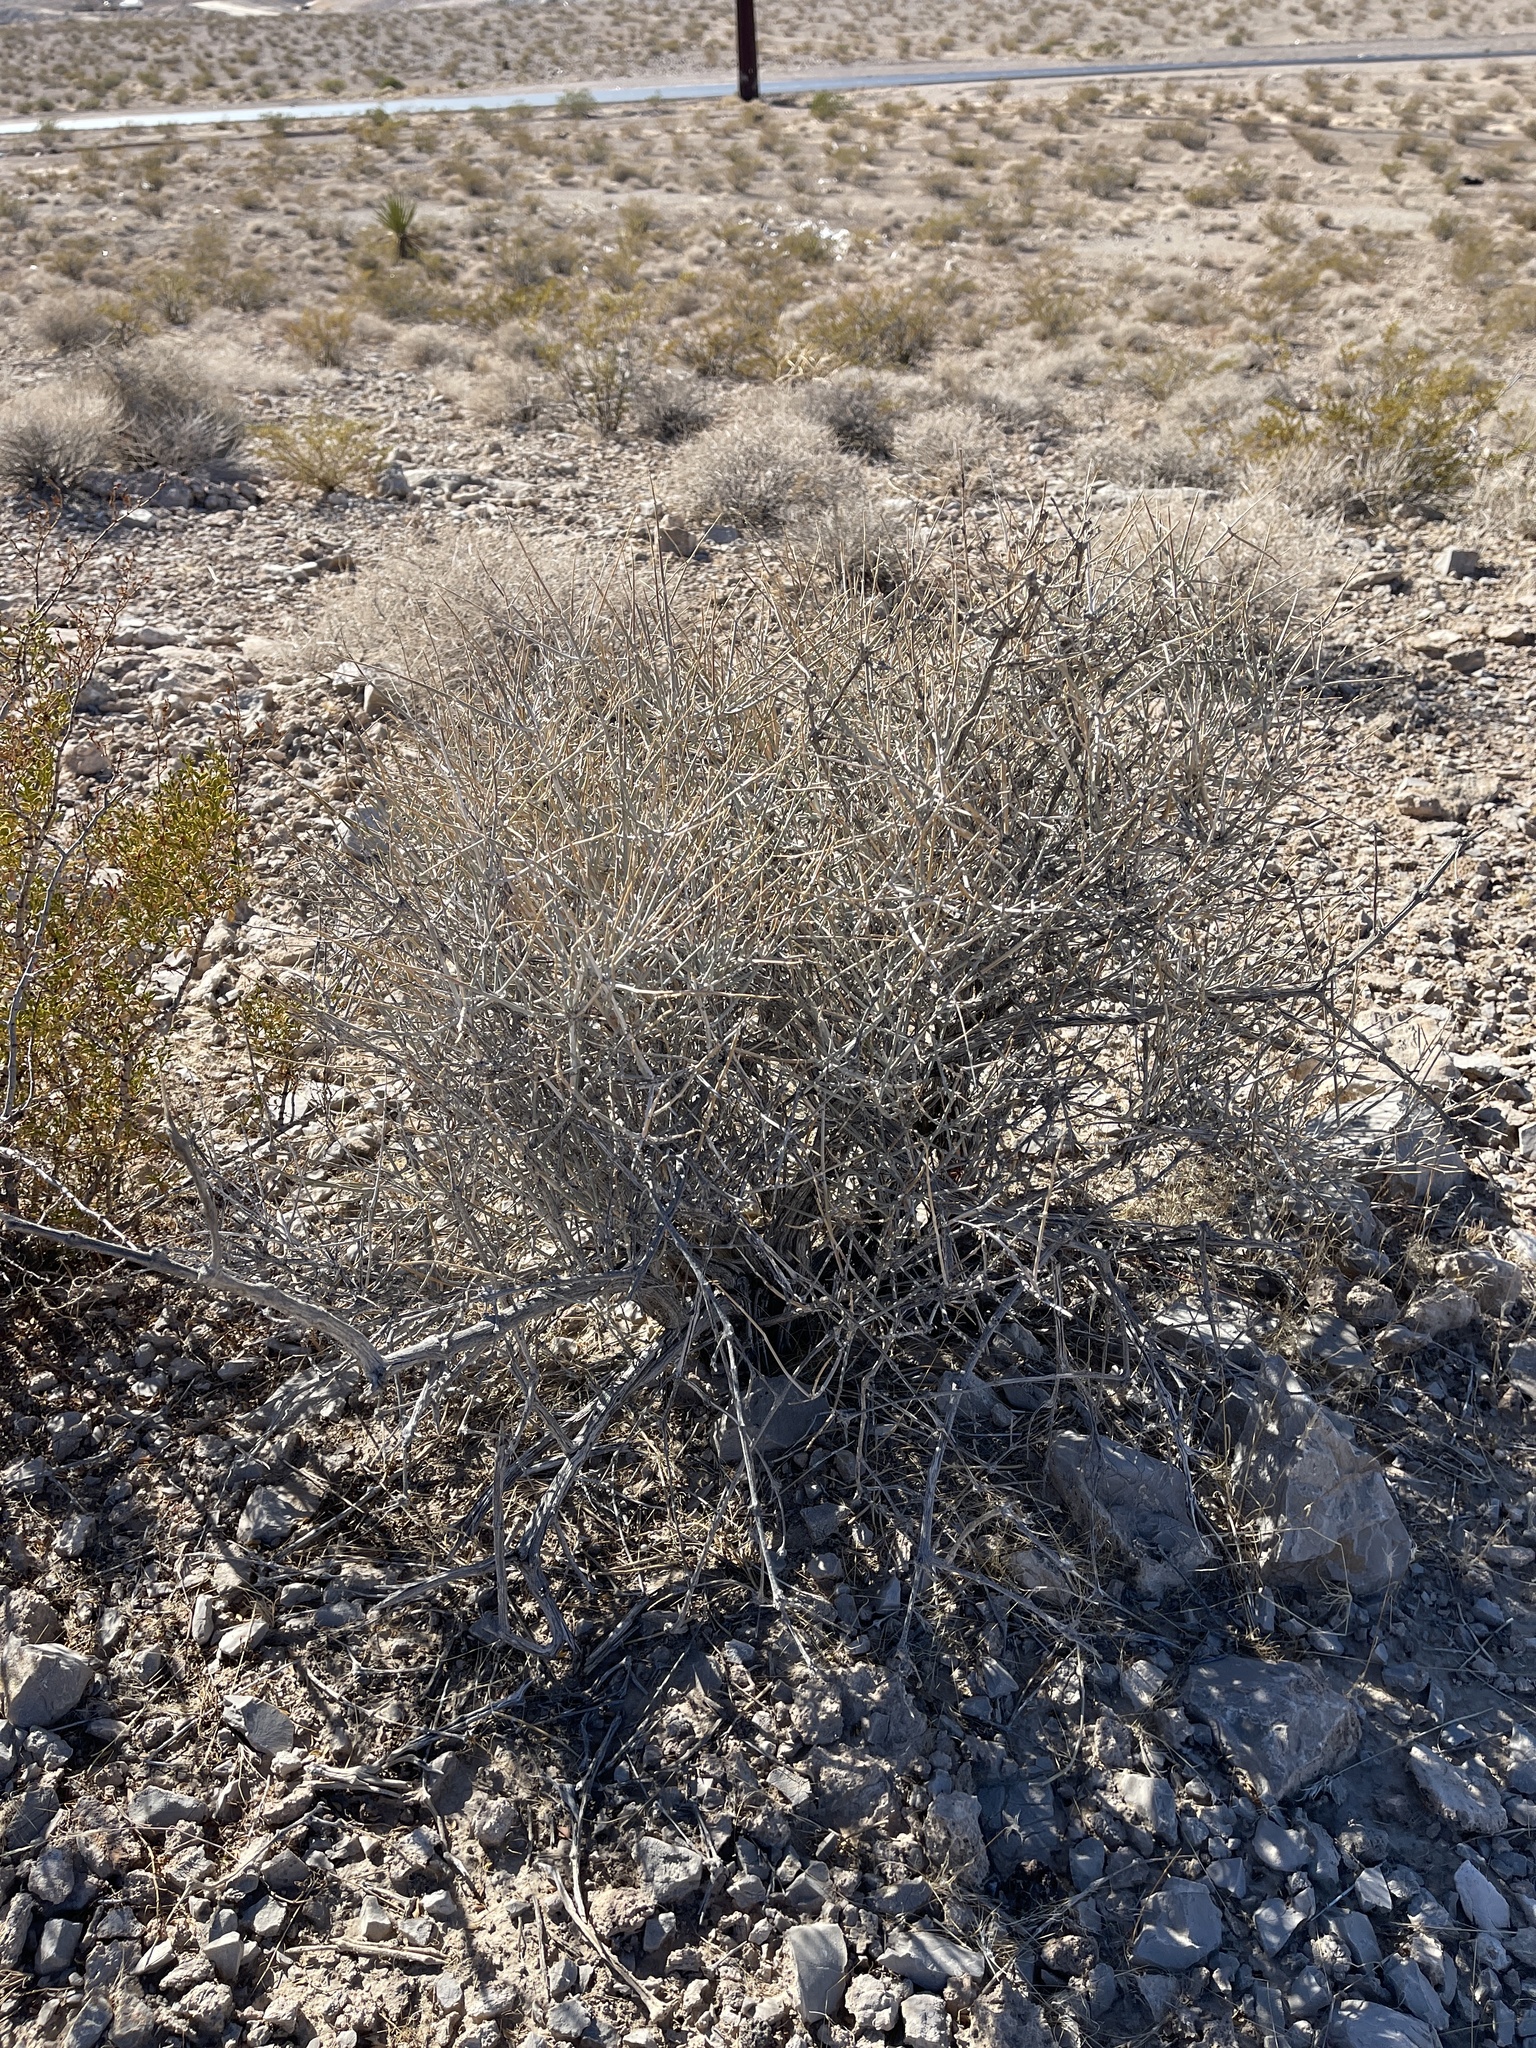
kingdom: Plantae
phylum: Tracheophyta
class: Gnetopsida
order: Ephedrales
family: Ephedraceae
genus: Ephedra
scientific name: Ephedra nevadensis
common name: Gray ephedra
